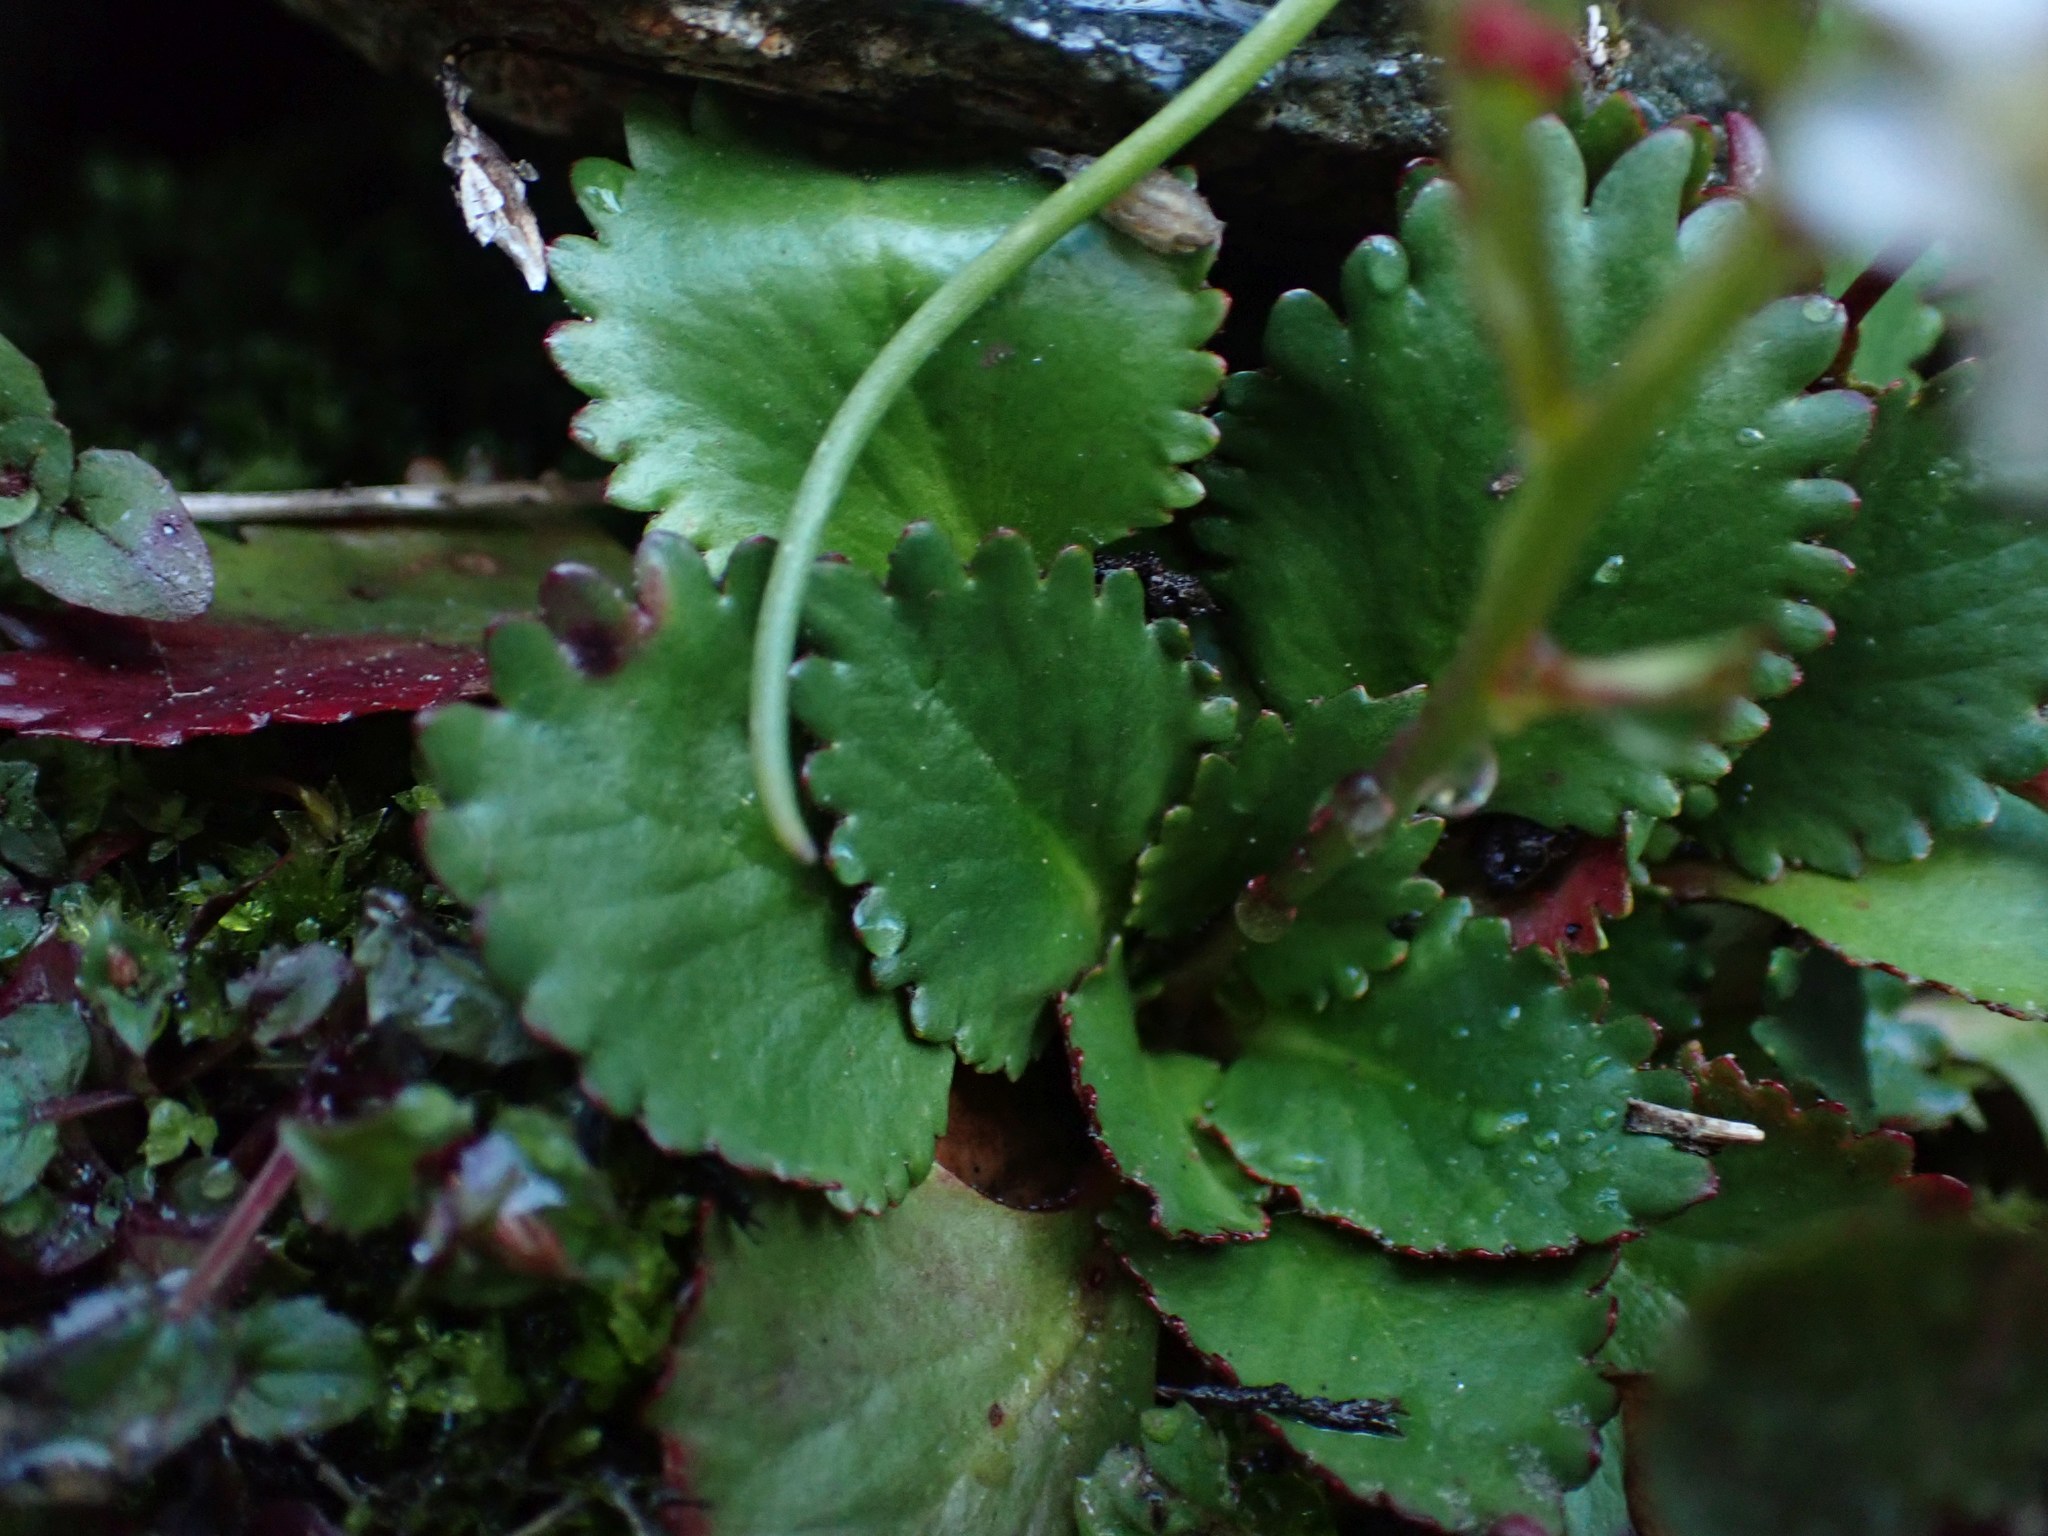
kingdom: Plantae
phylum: Tracheophyta
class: Magnoliopsida
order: Saxifragales
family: Saxifragaceae
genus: Micranthes
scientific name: Micranthes rufidula
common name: Rustyhair saxifrage
